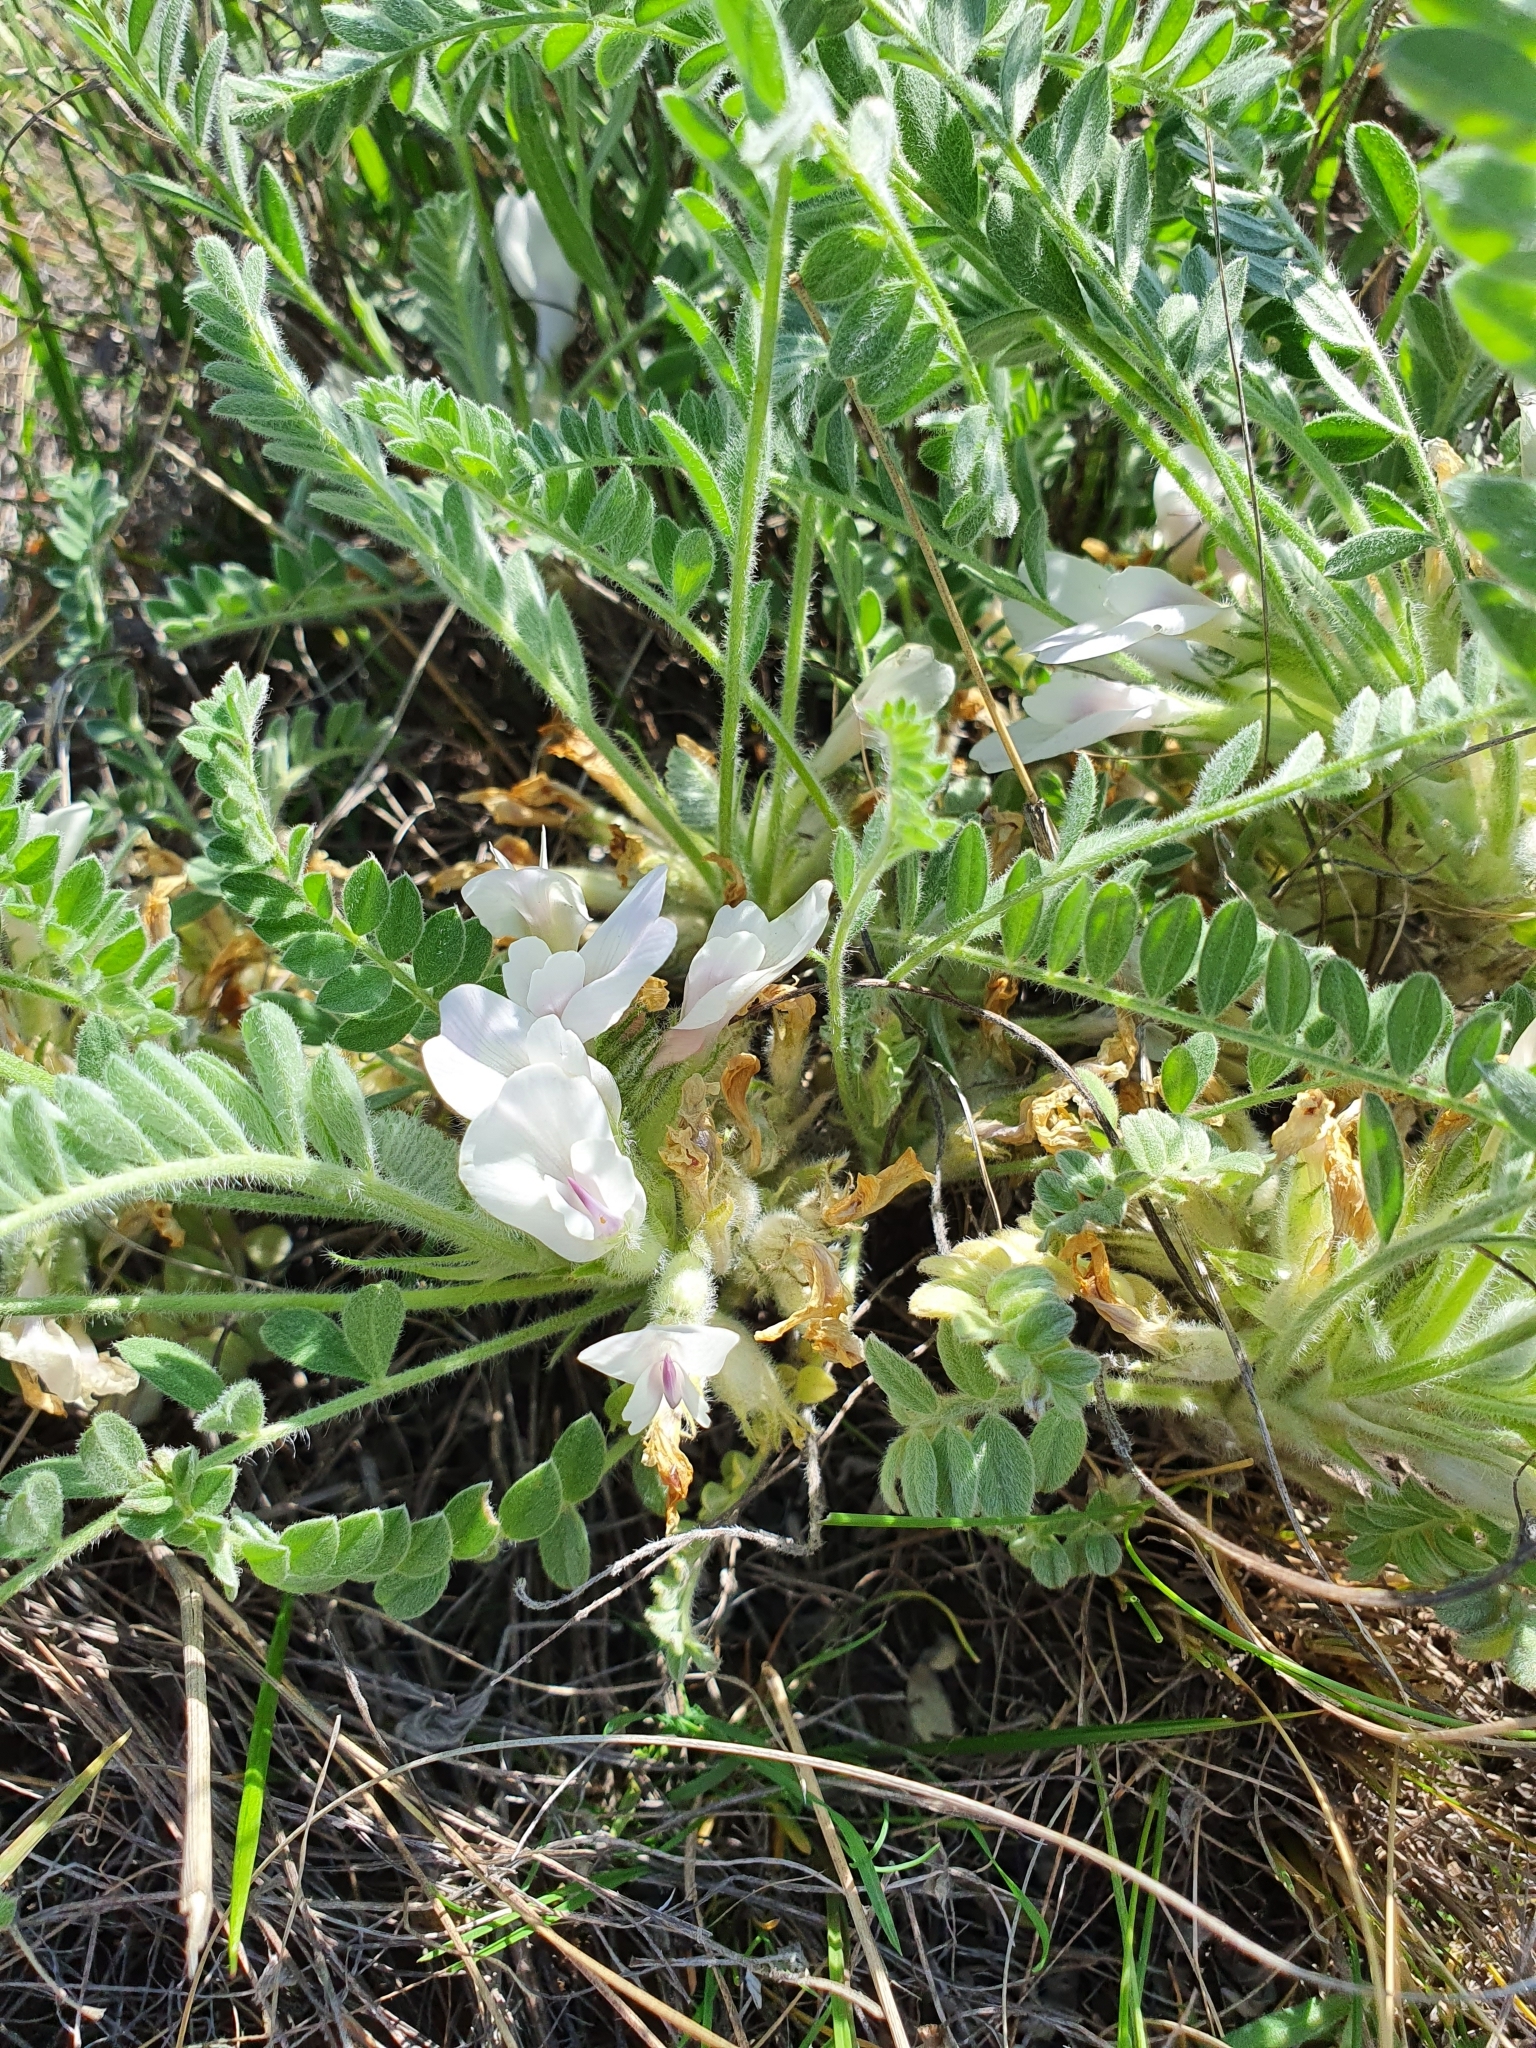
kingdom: Plantae
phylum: Tracheophyta
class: Magnoliopsida
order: Fabales
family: Fabaceae
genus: Astragalus
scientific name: Astragalus testiculatus
